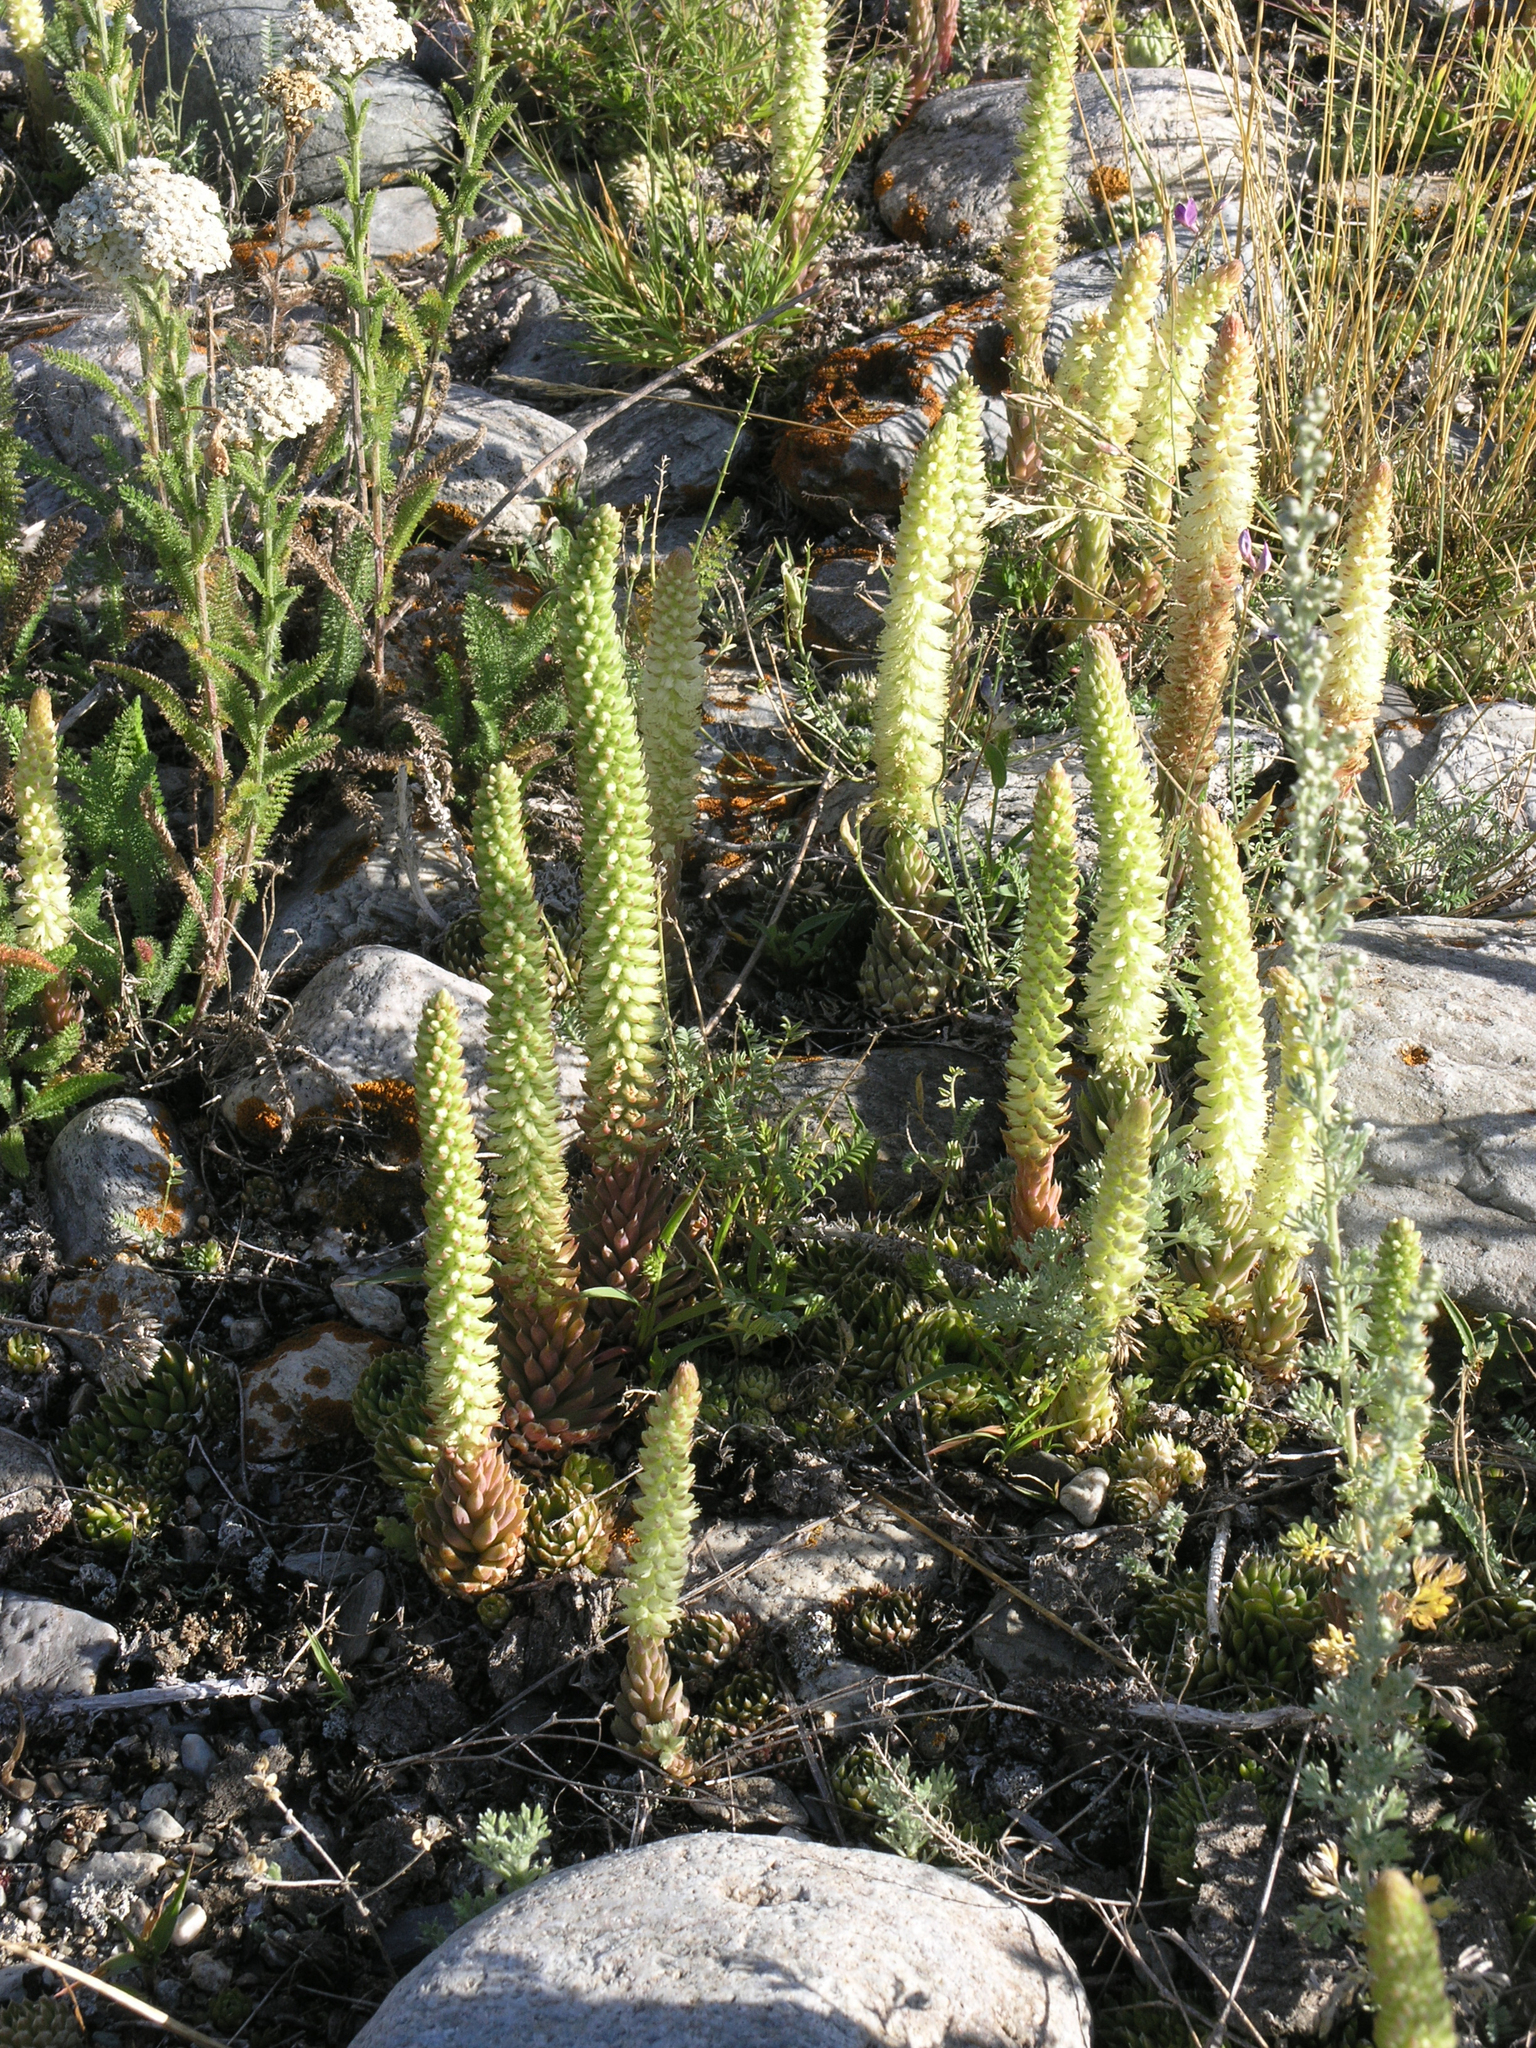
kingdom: Plantae
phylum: Tracheophyta
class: Magnoliopsida
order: Saxifragales
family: Crassulaceae
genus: Orostachys
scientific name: Orostachys spinosa
